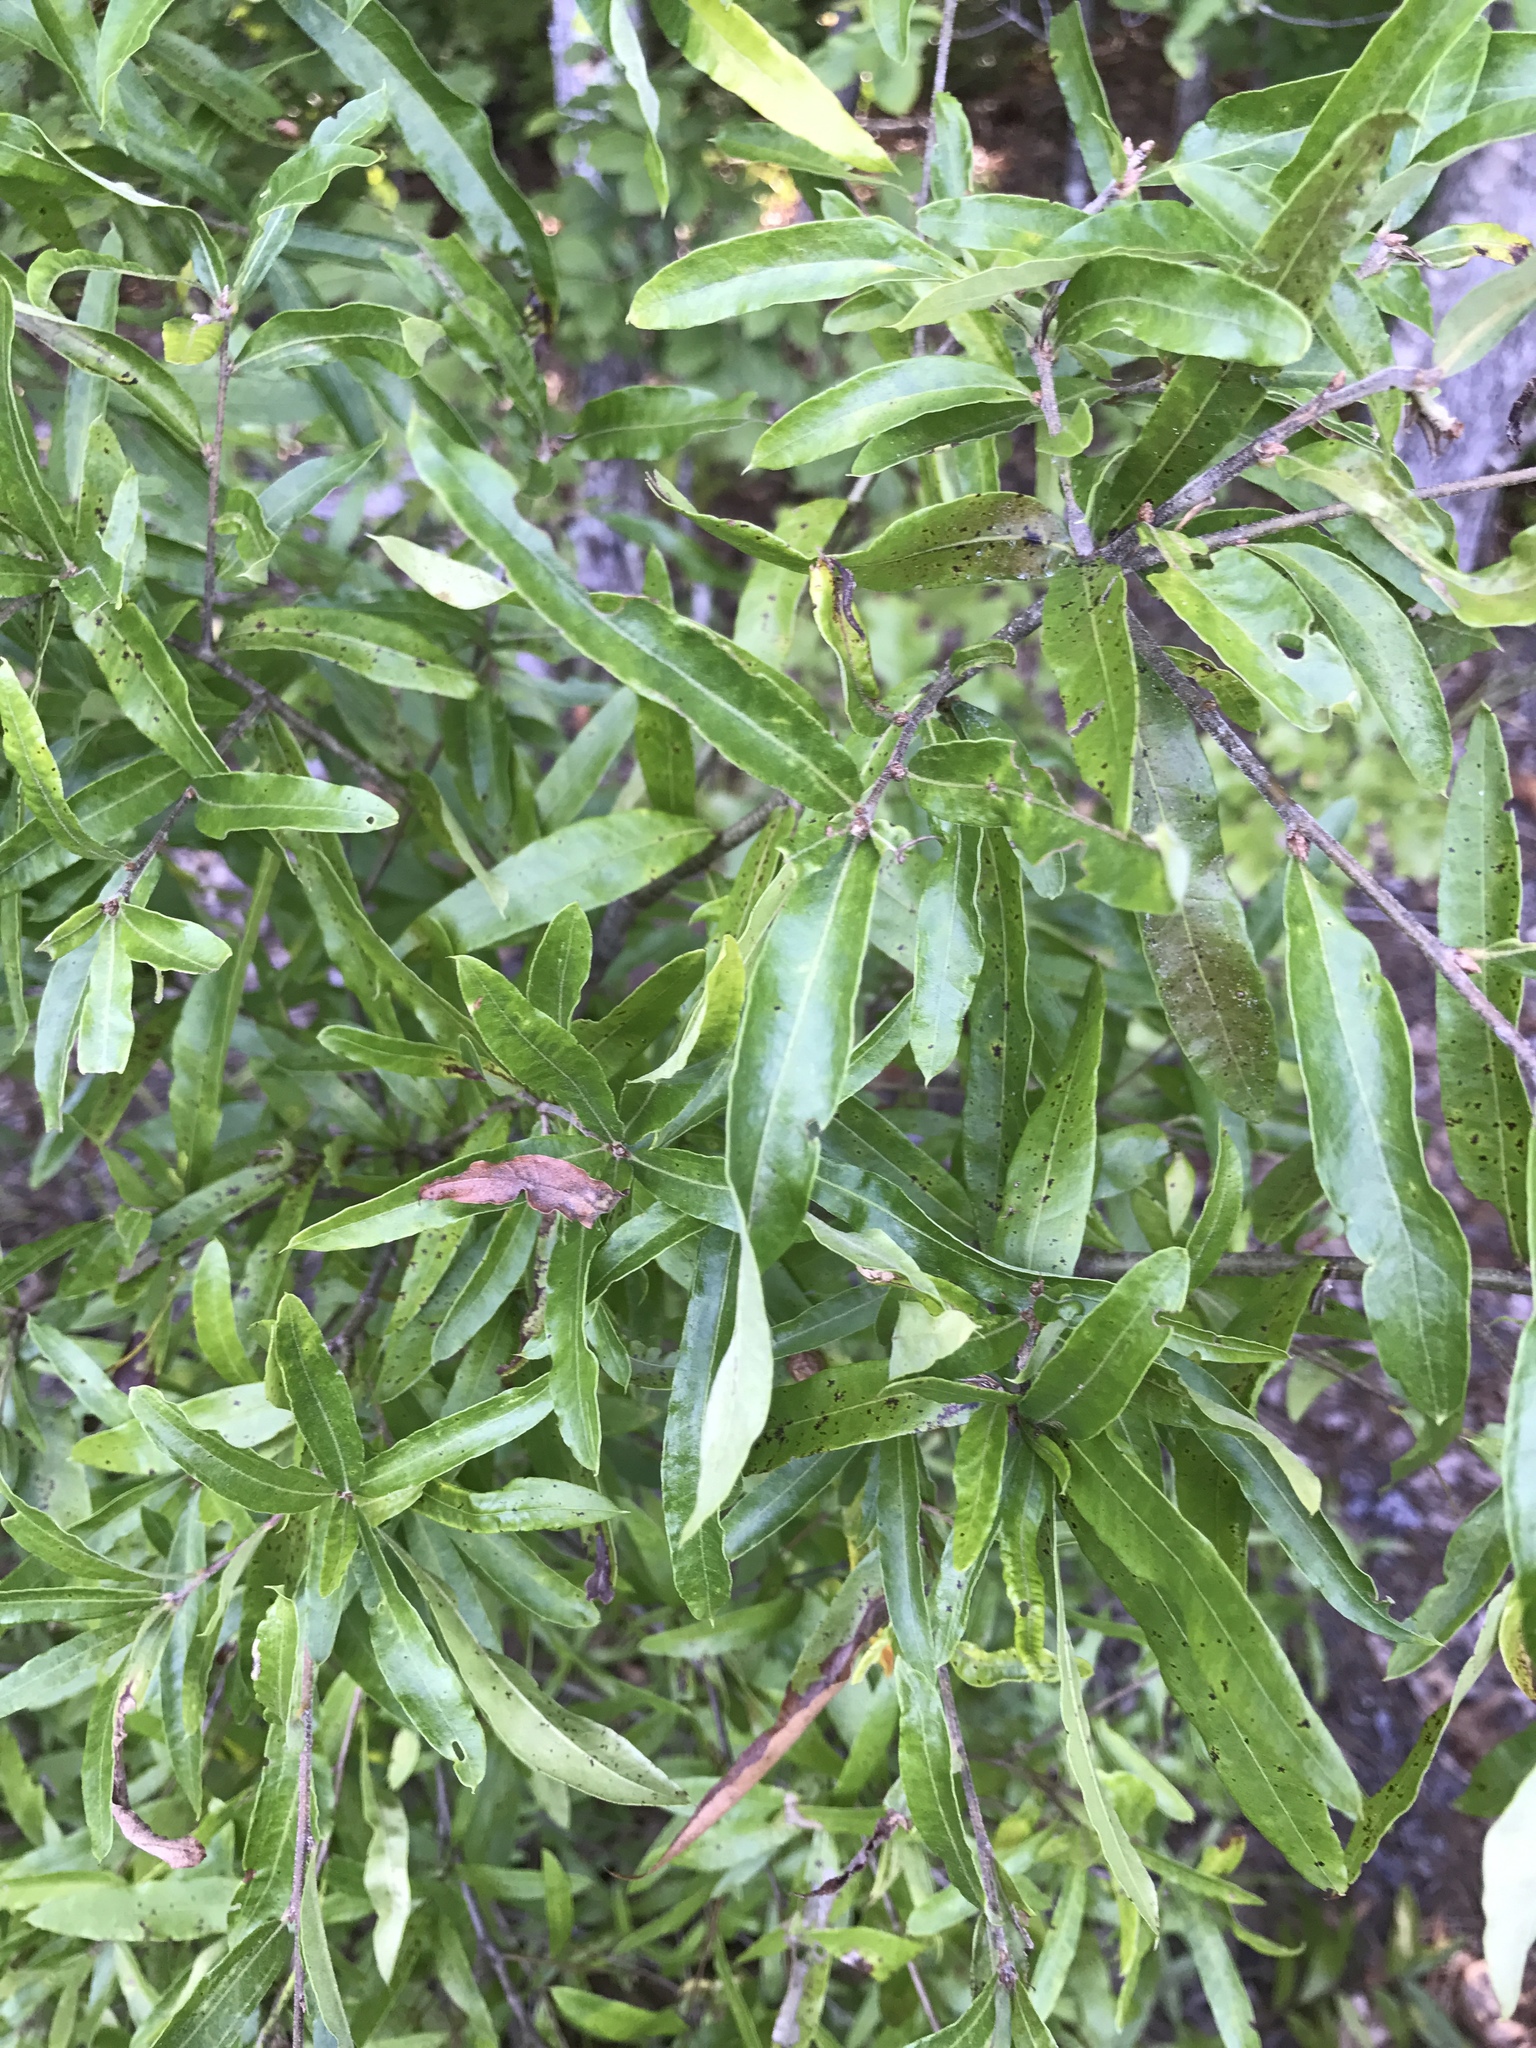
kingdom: Plantae
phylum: Tracheophyta
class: Magnoliopsida
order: Fagales
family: Fagaceae
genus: Quercus
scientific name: Quercus phellos
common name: Willow oak
